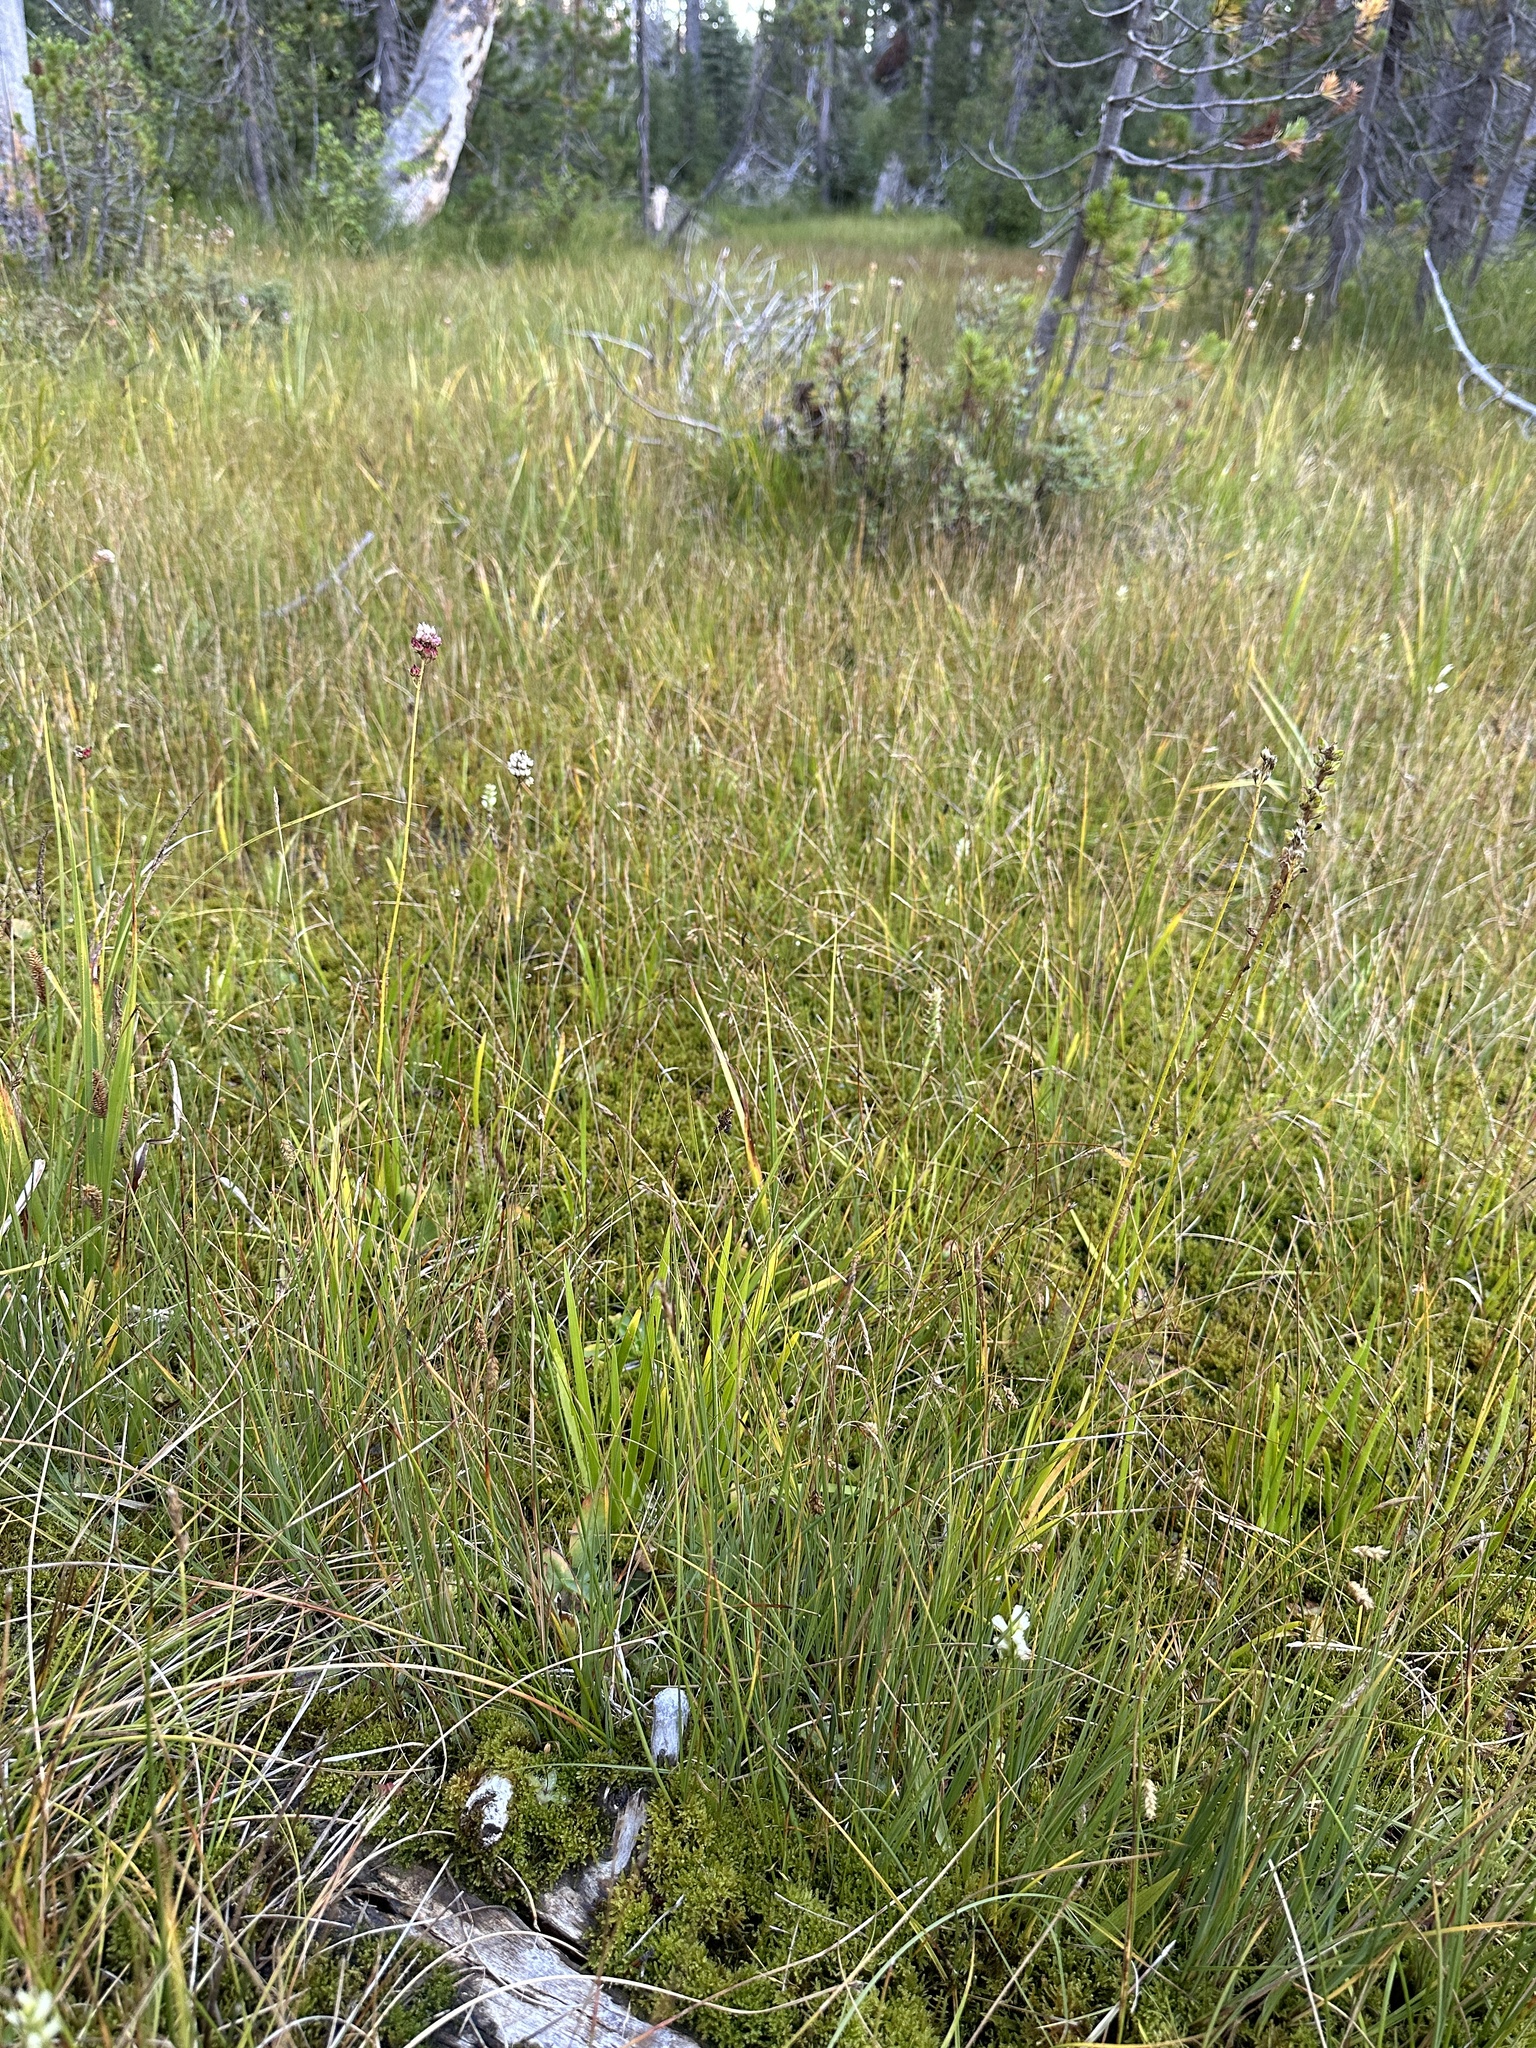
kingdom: Plantae
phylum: Tracheophyta
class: Liliopsida
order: Poales
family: Cyperaceae
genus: Carex
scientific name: Carex limosa
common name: Bog sedge
